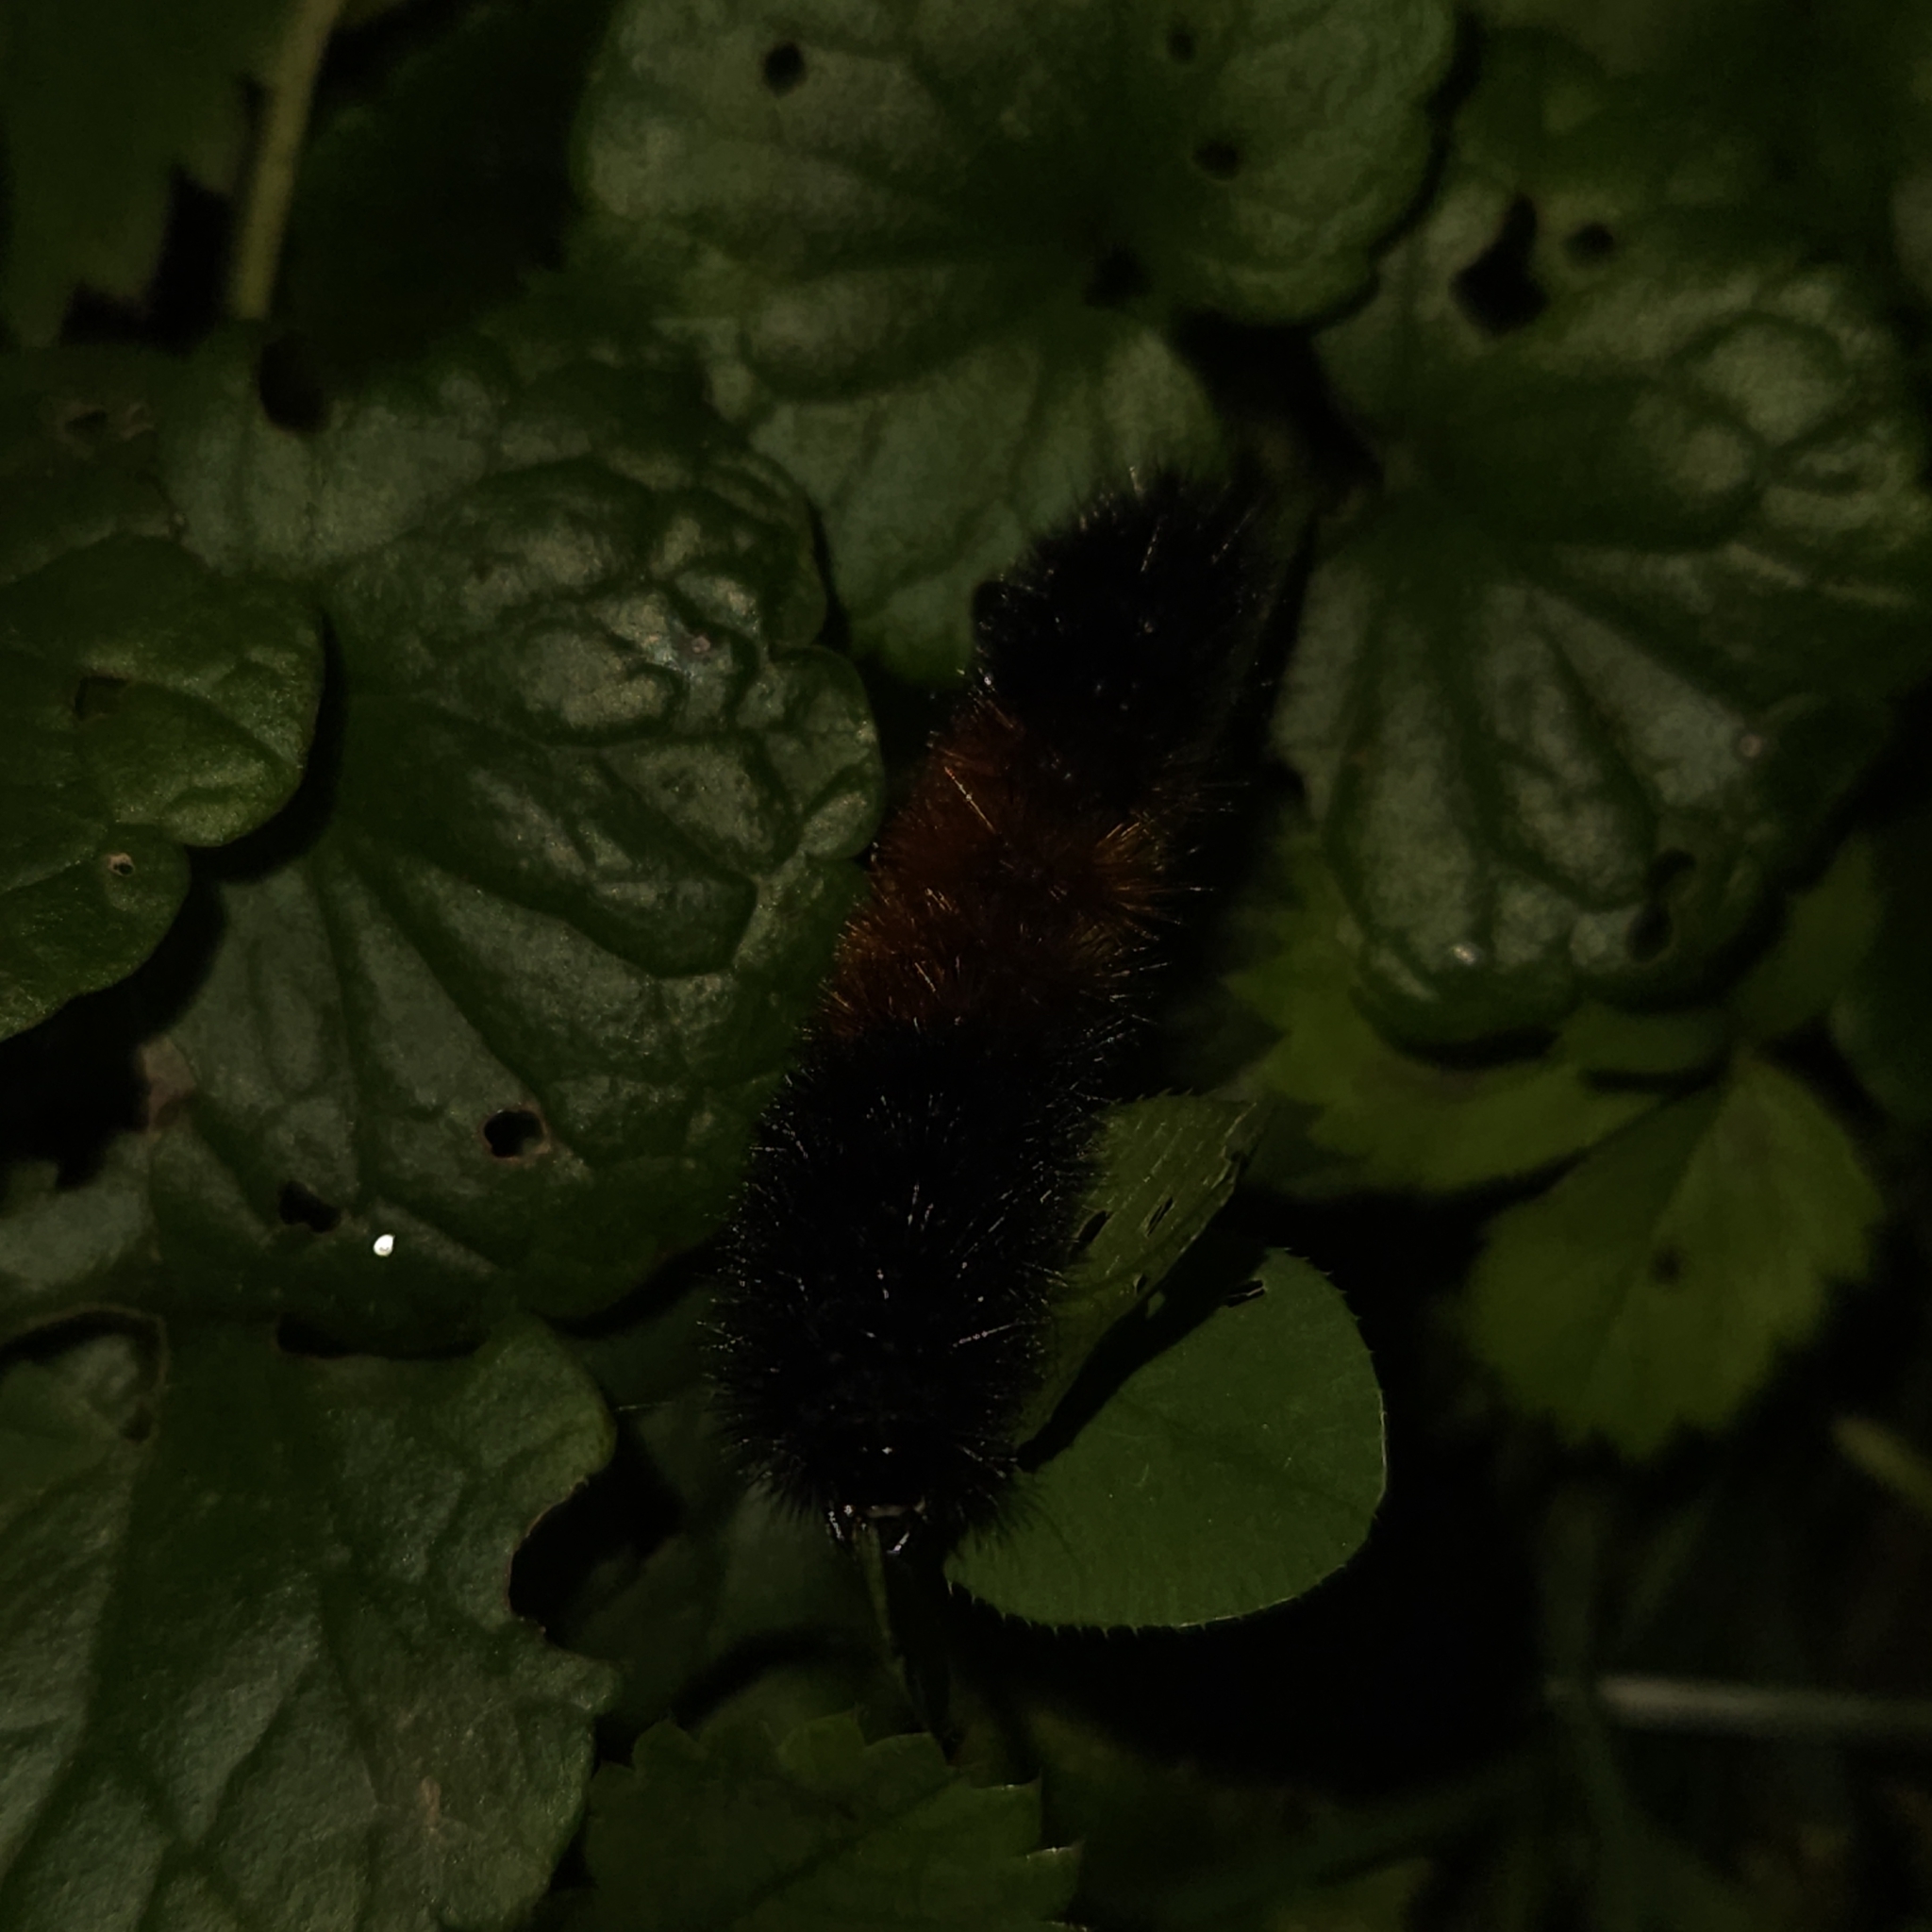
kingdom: Animalia
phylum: Arthropoda
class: Insecta
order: Lepidoptera
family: Erebidae
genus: Pyrrharctia
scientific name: Pyrrharctia isabella
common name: Isabella tiger moth
